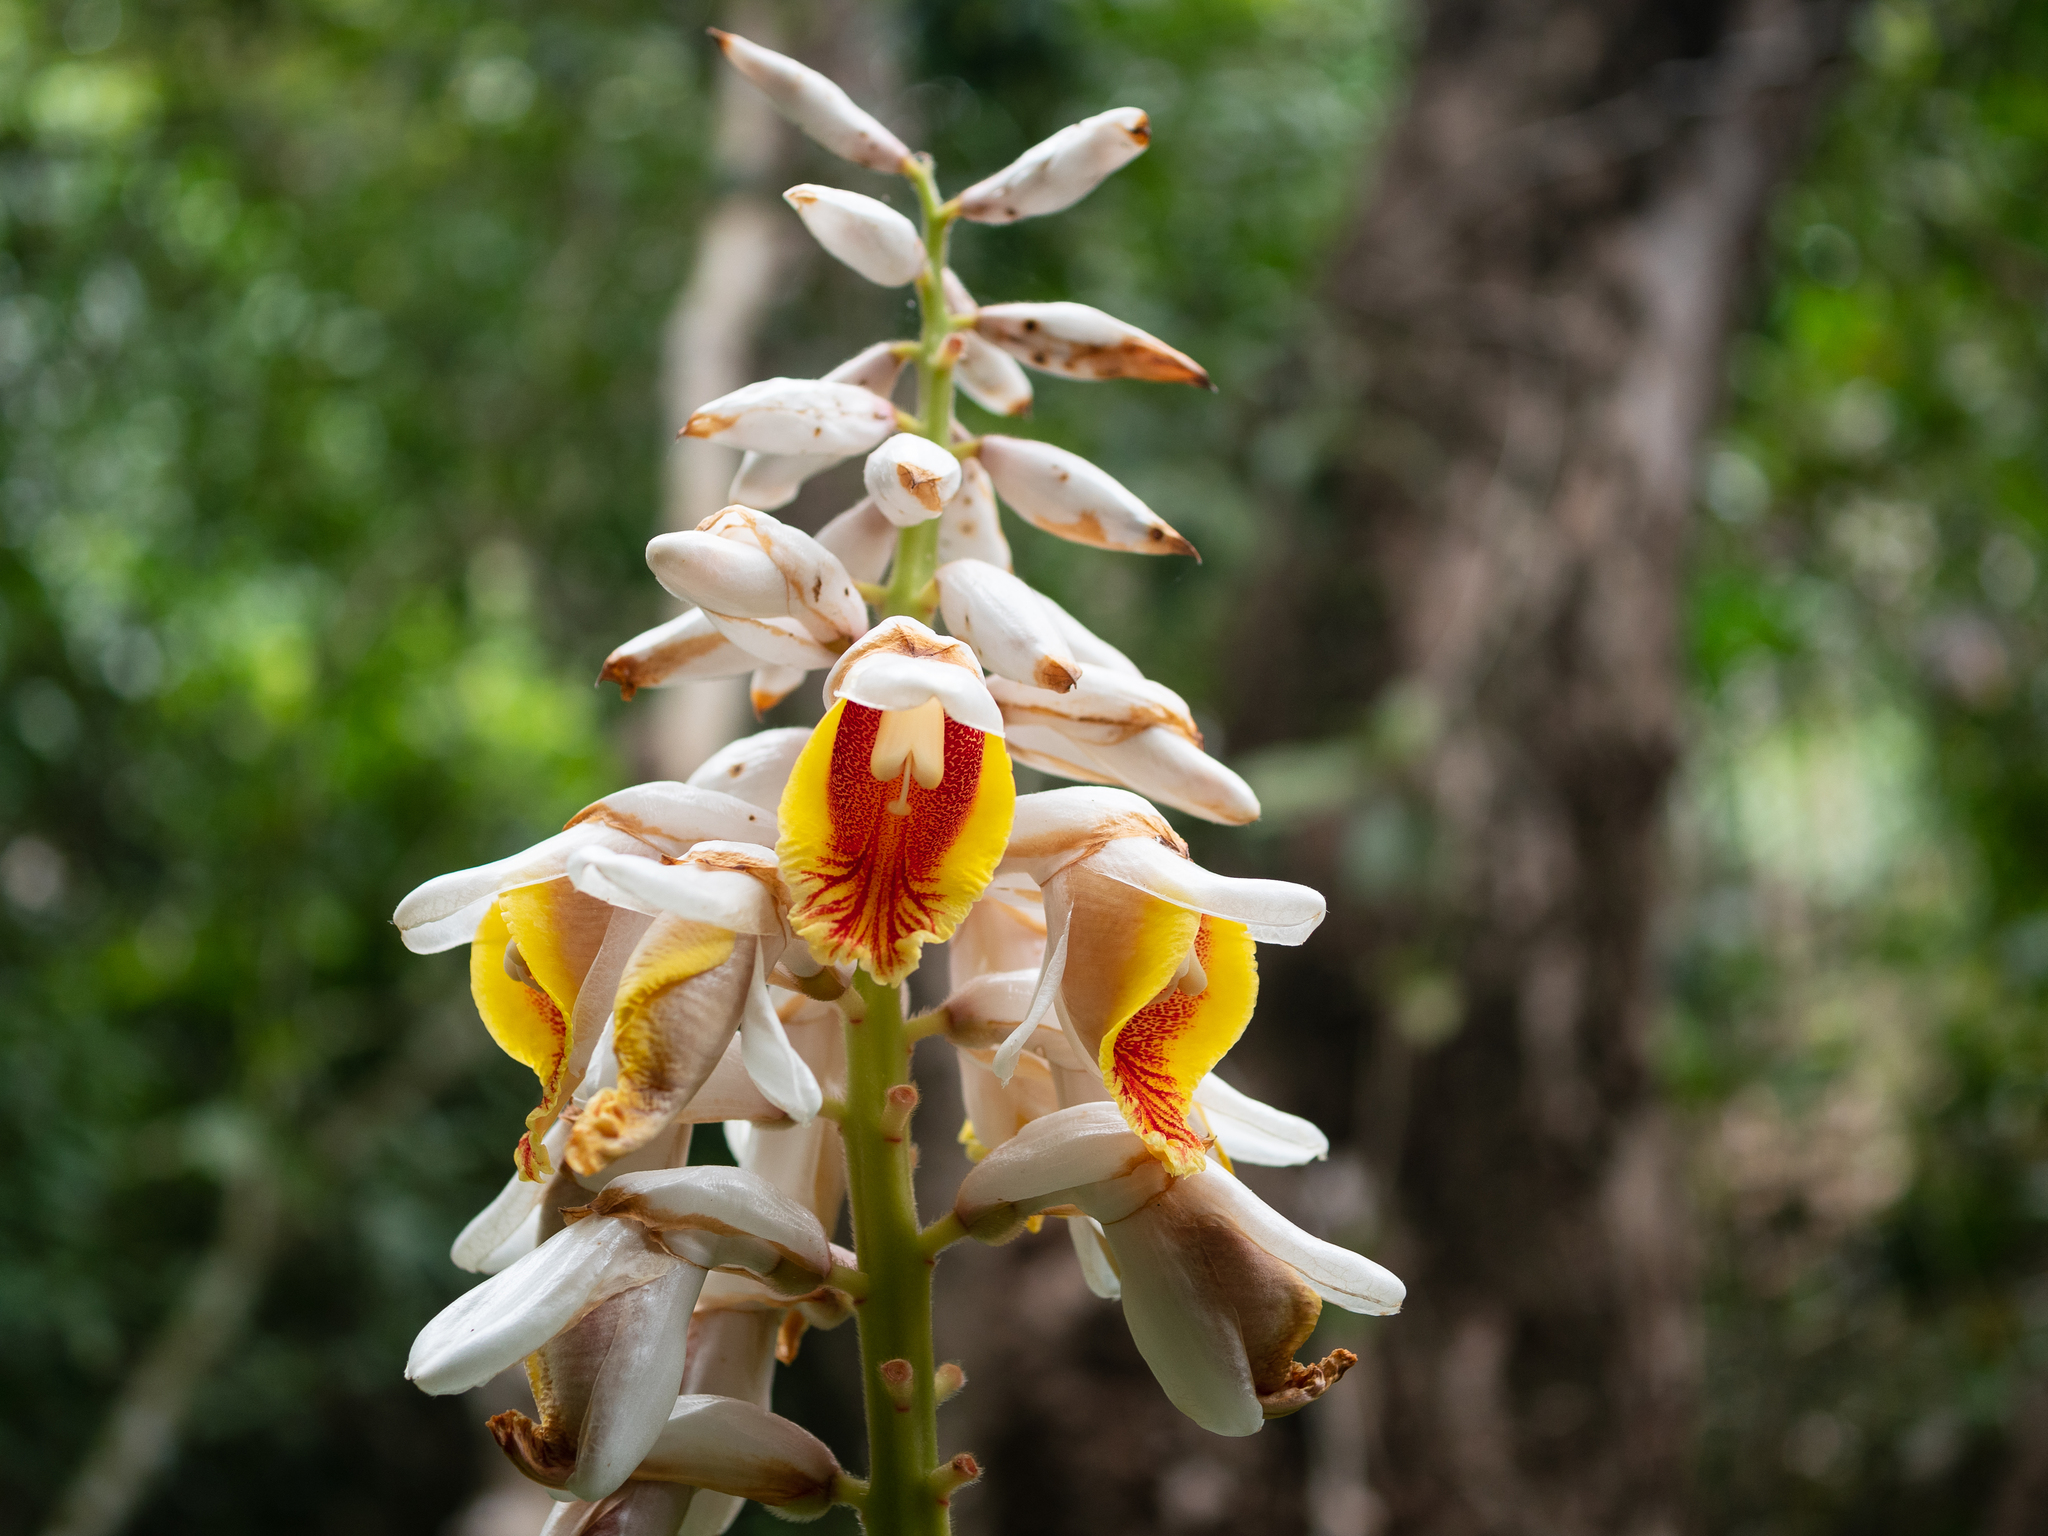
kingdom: Plantae
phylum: Tracheophyta
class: Liliopsida
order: Zingiberales
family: Zingiberaceae
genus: Alpinia
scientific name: Alpinia hainanensis
